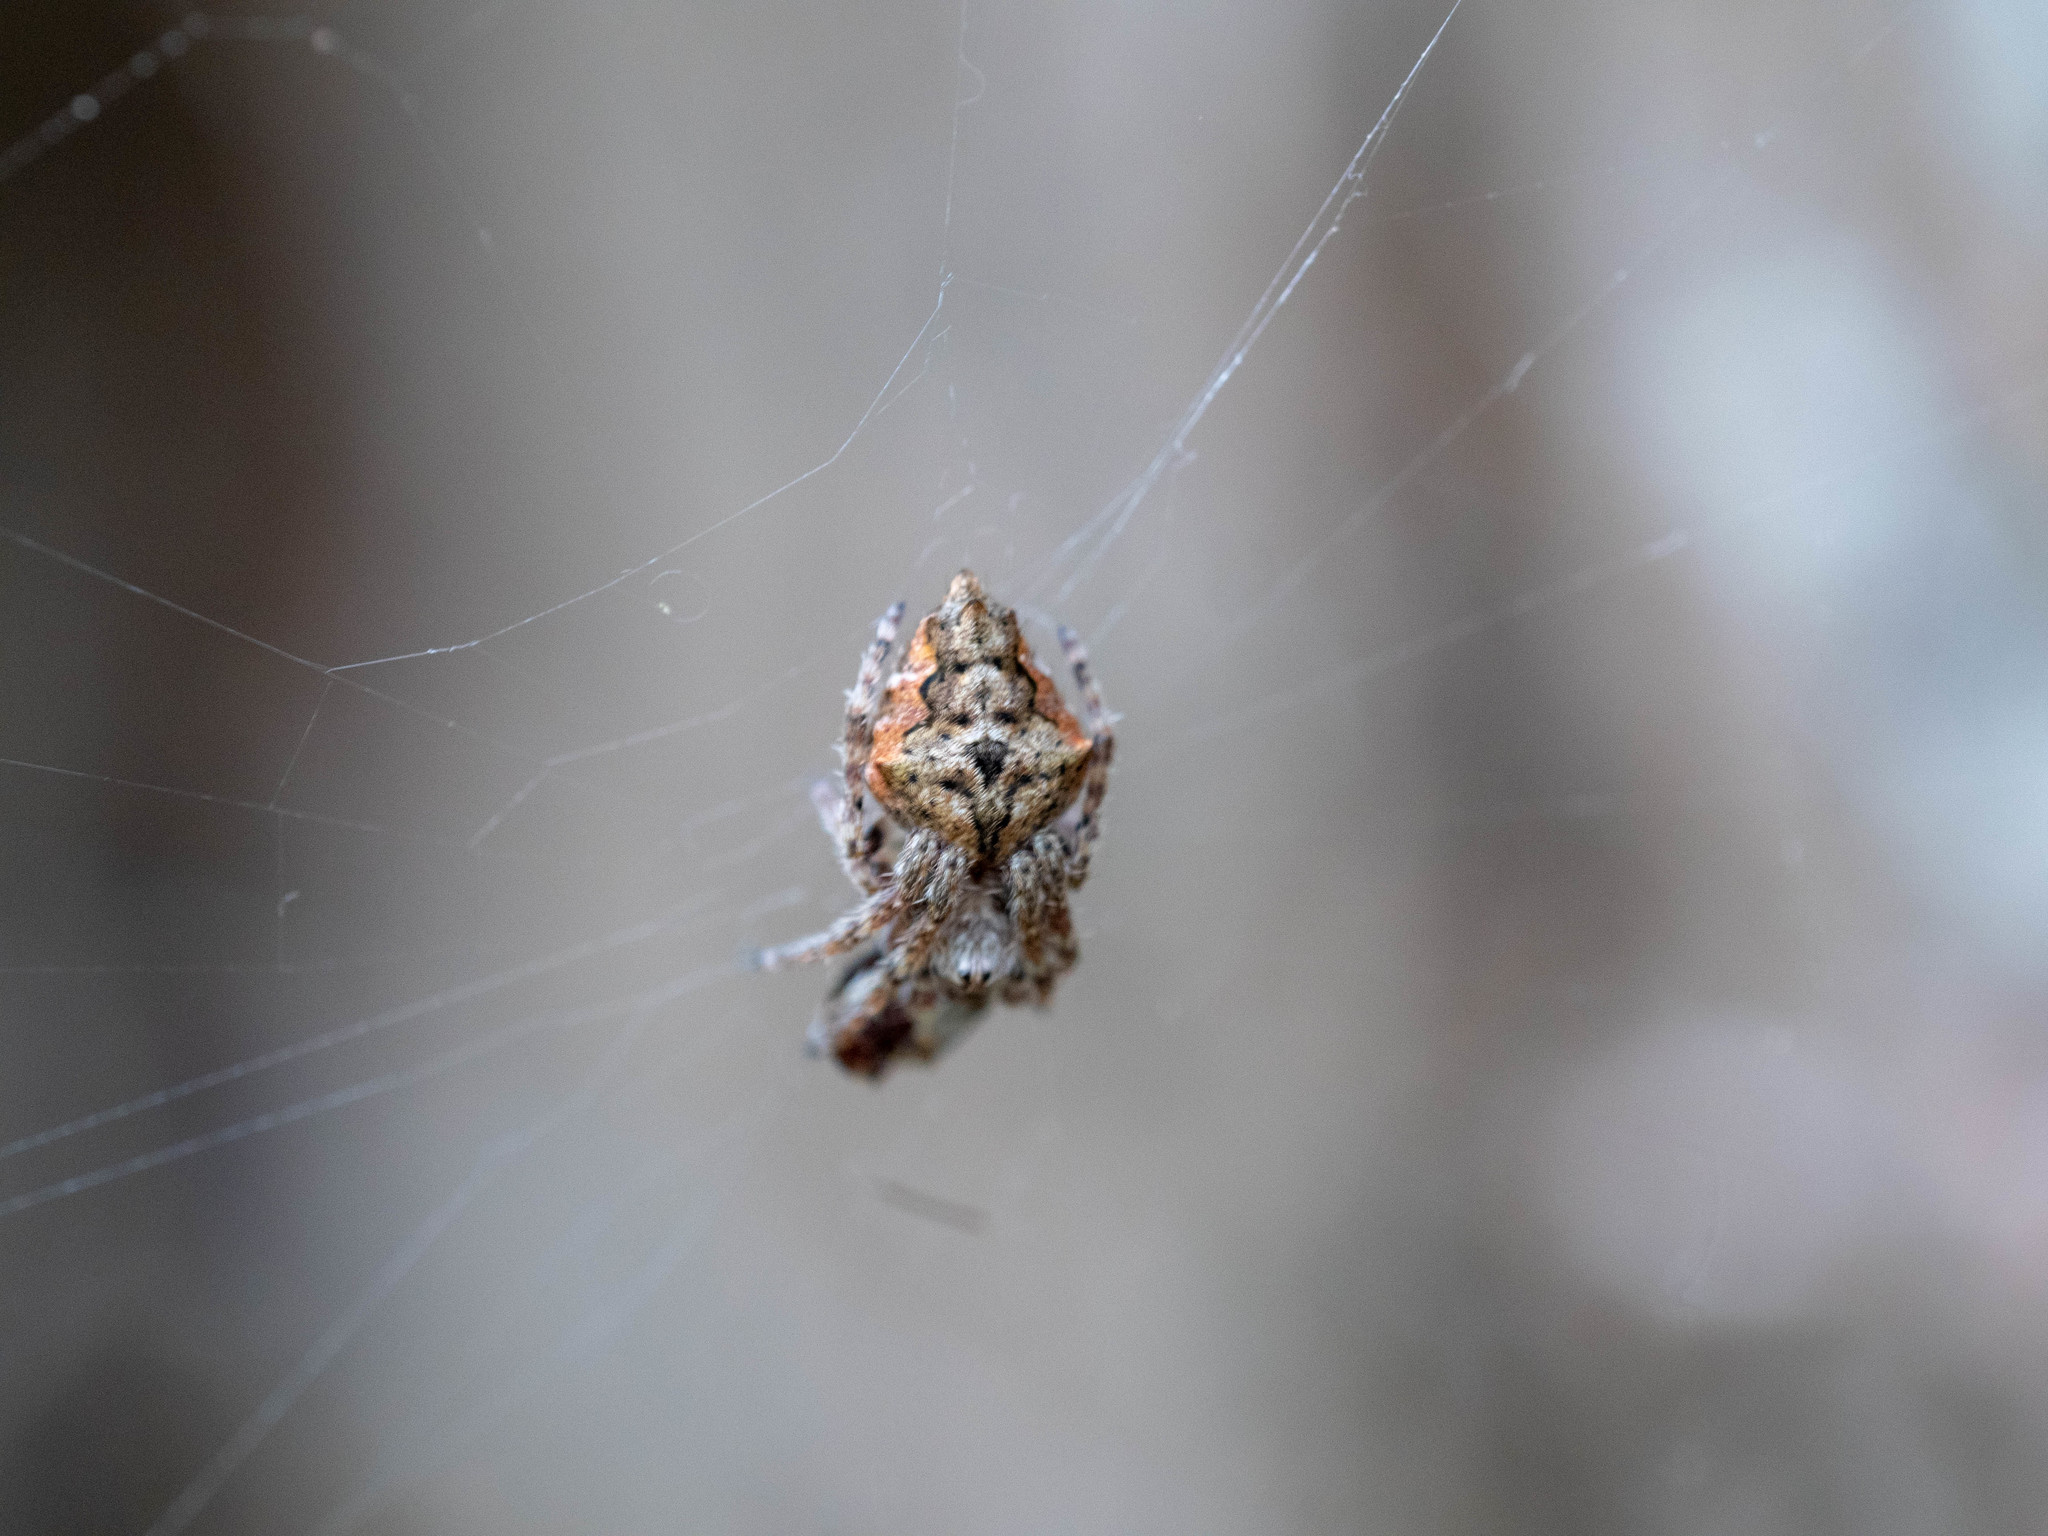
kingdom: Animalia
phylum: Arthropoda
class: Arachnida
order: Araneae
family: Araneidae
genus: Eriophora
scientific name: Eriophora pustulosa
